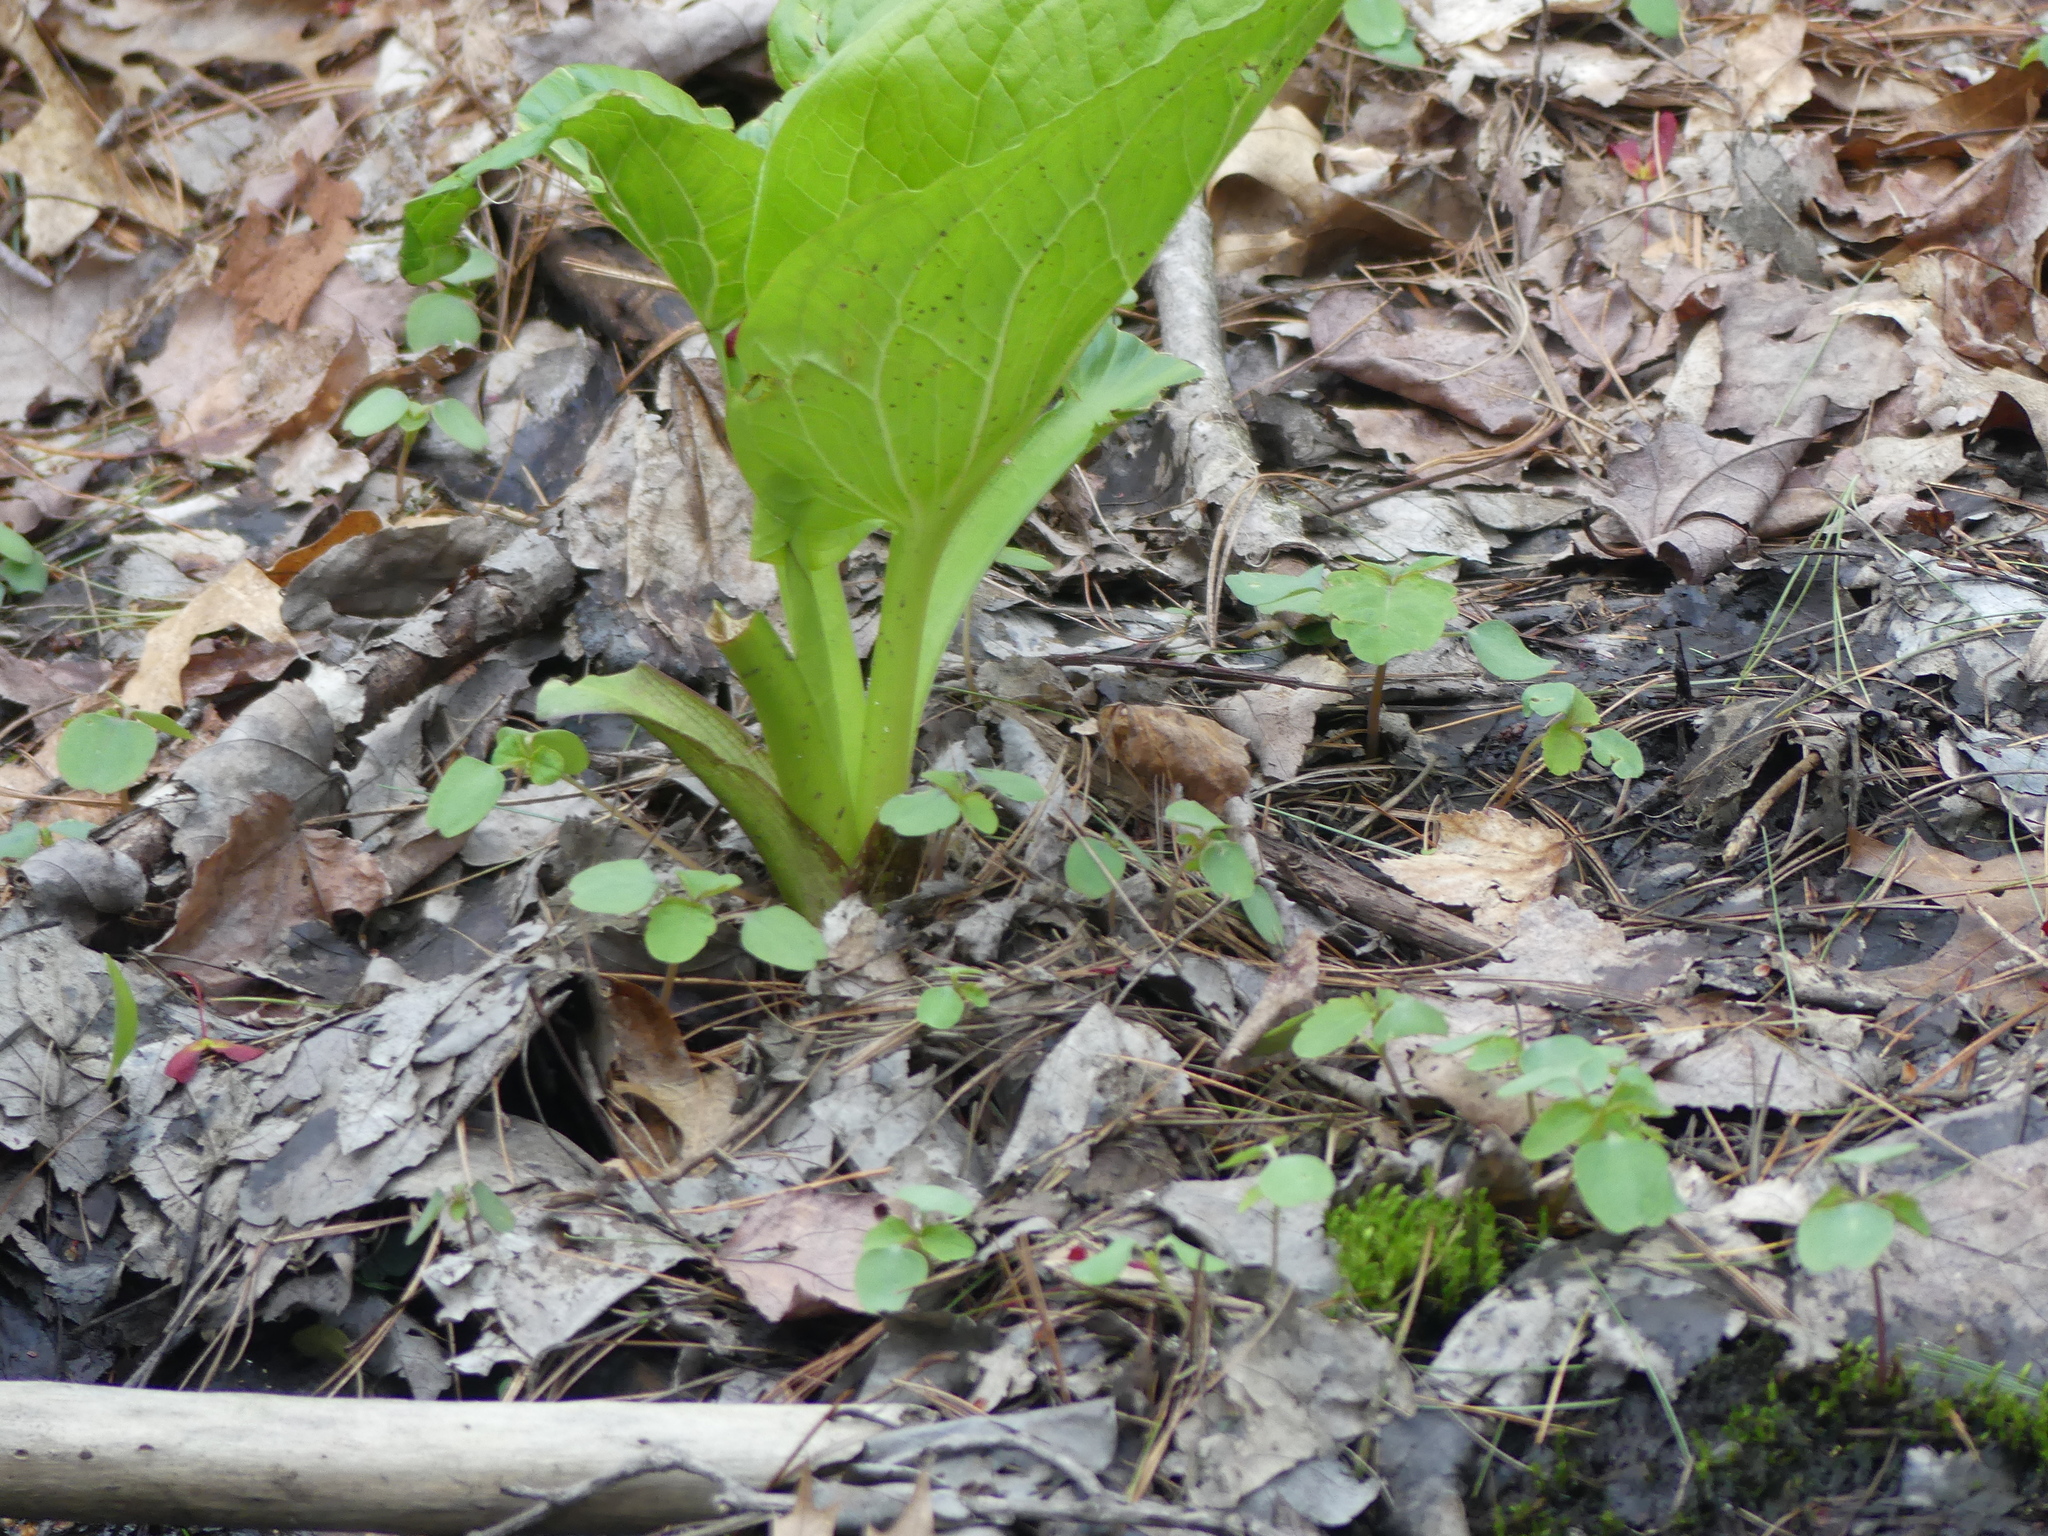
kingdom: Plantae
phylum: Tracheophyta
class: Liliopsida
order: Alismatales
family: Araceae
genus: Symplocarpus
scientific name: Symplocarpus foetidus
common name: Eastern skunk cabbage
